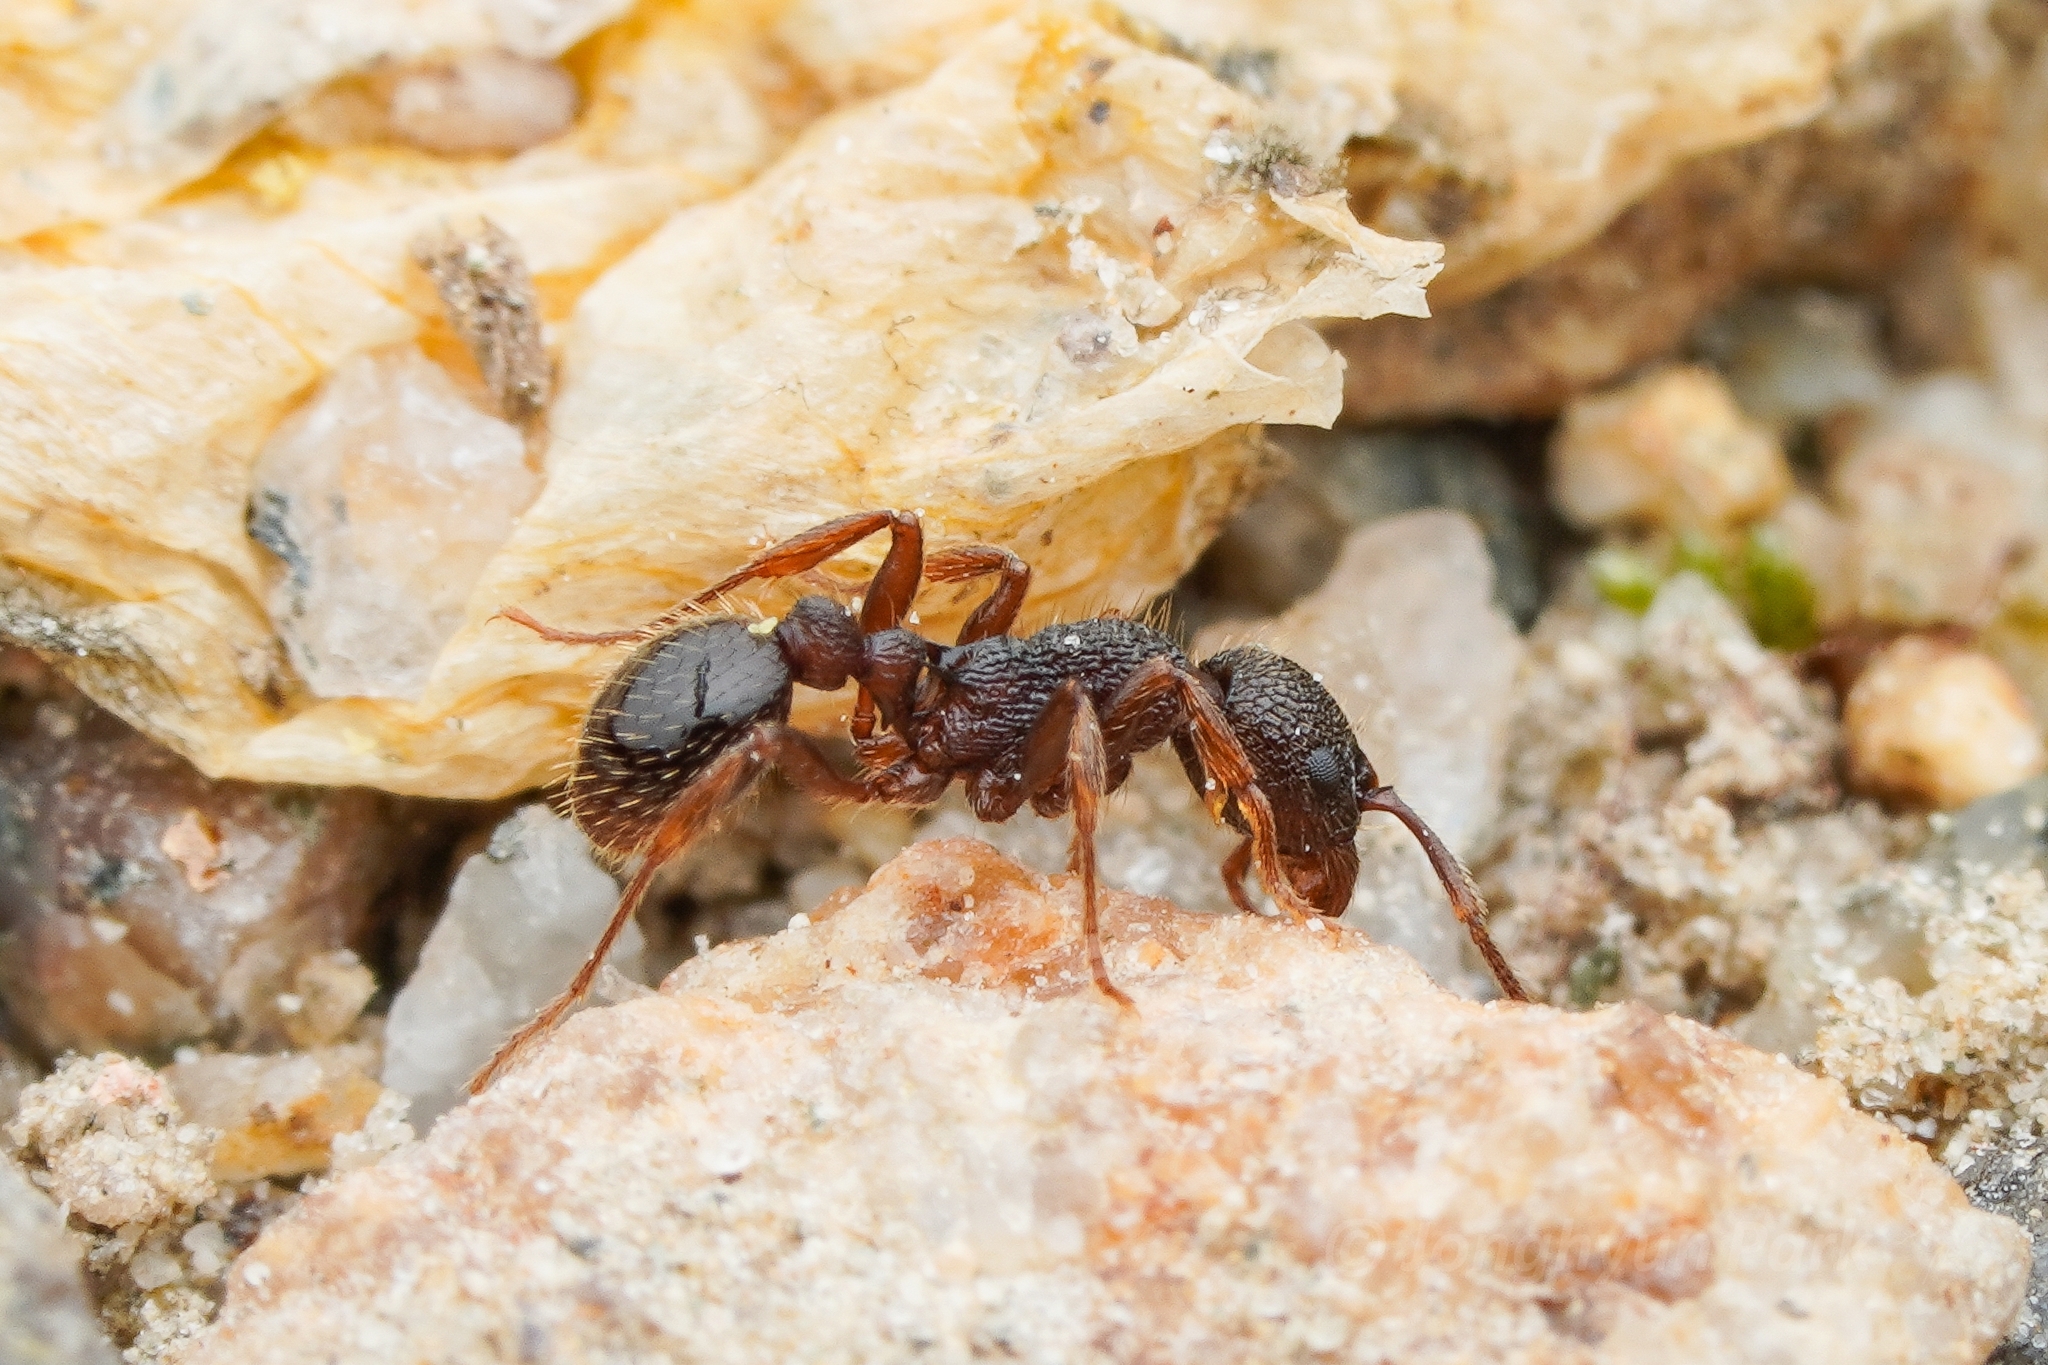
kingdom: Animalia
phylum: Arthropoda
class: Insecta
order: Hymenoptera
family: Formicidae
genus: Myrmica
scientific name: Myrmica jessensis
